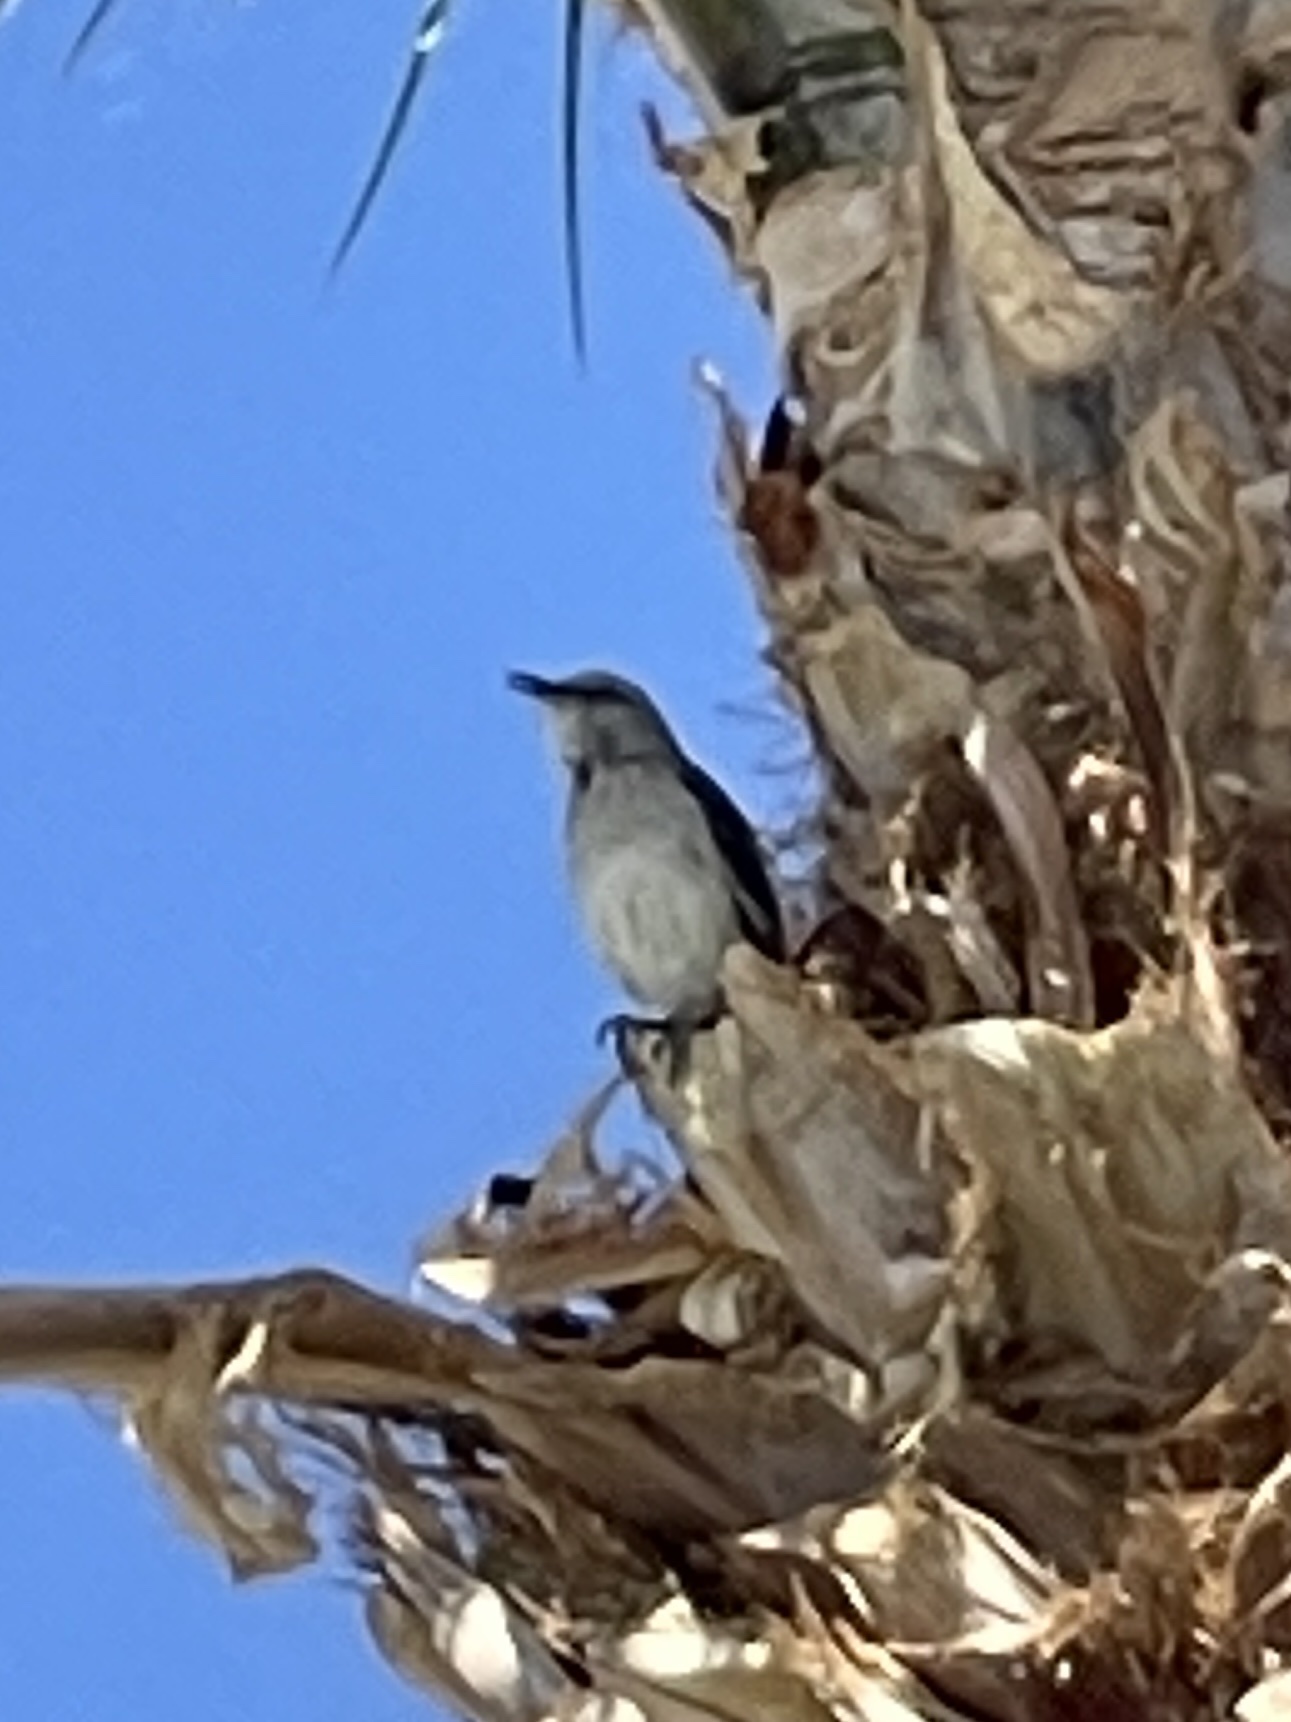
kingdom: Animalia
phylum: Chordata
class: Aves
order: Passeriformes
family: Mimidae
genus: Mimus
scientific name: Mimus polyglottos
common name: Northern mockingbird
